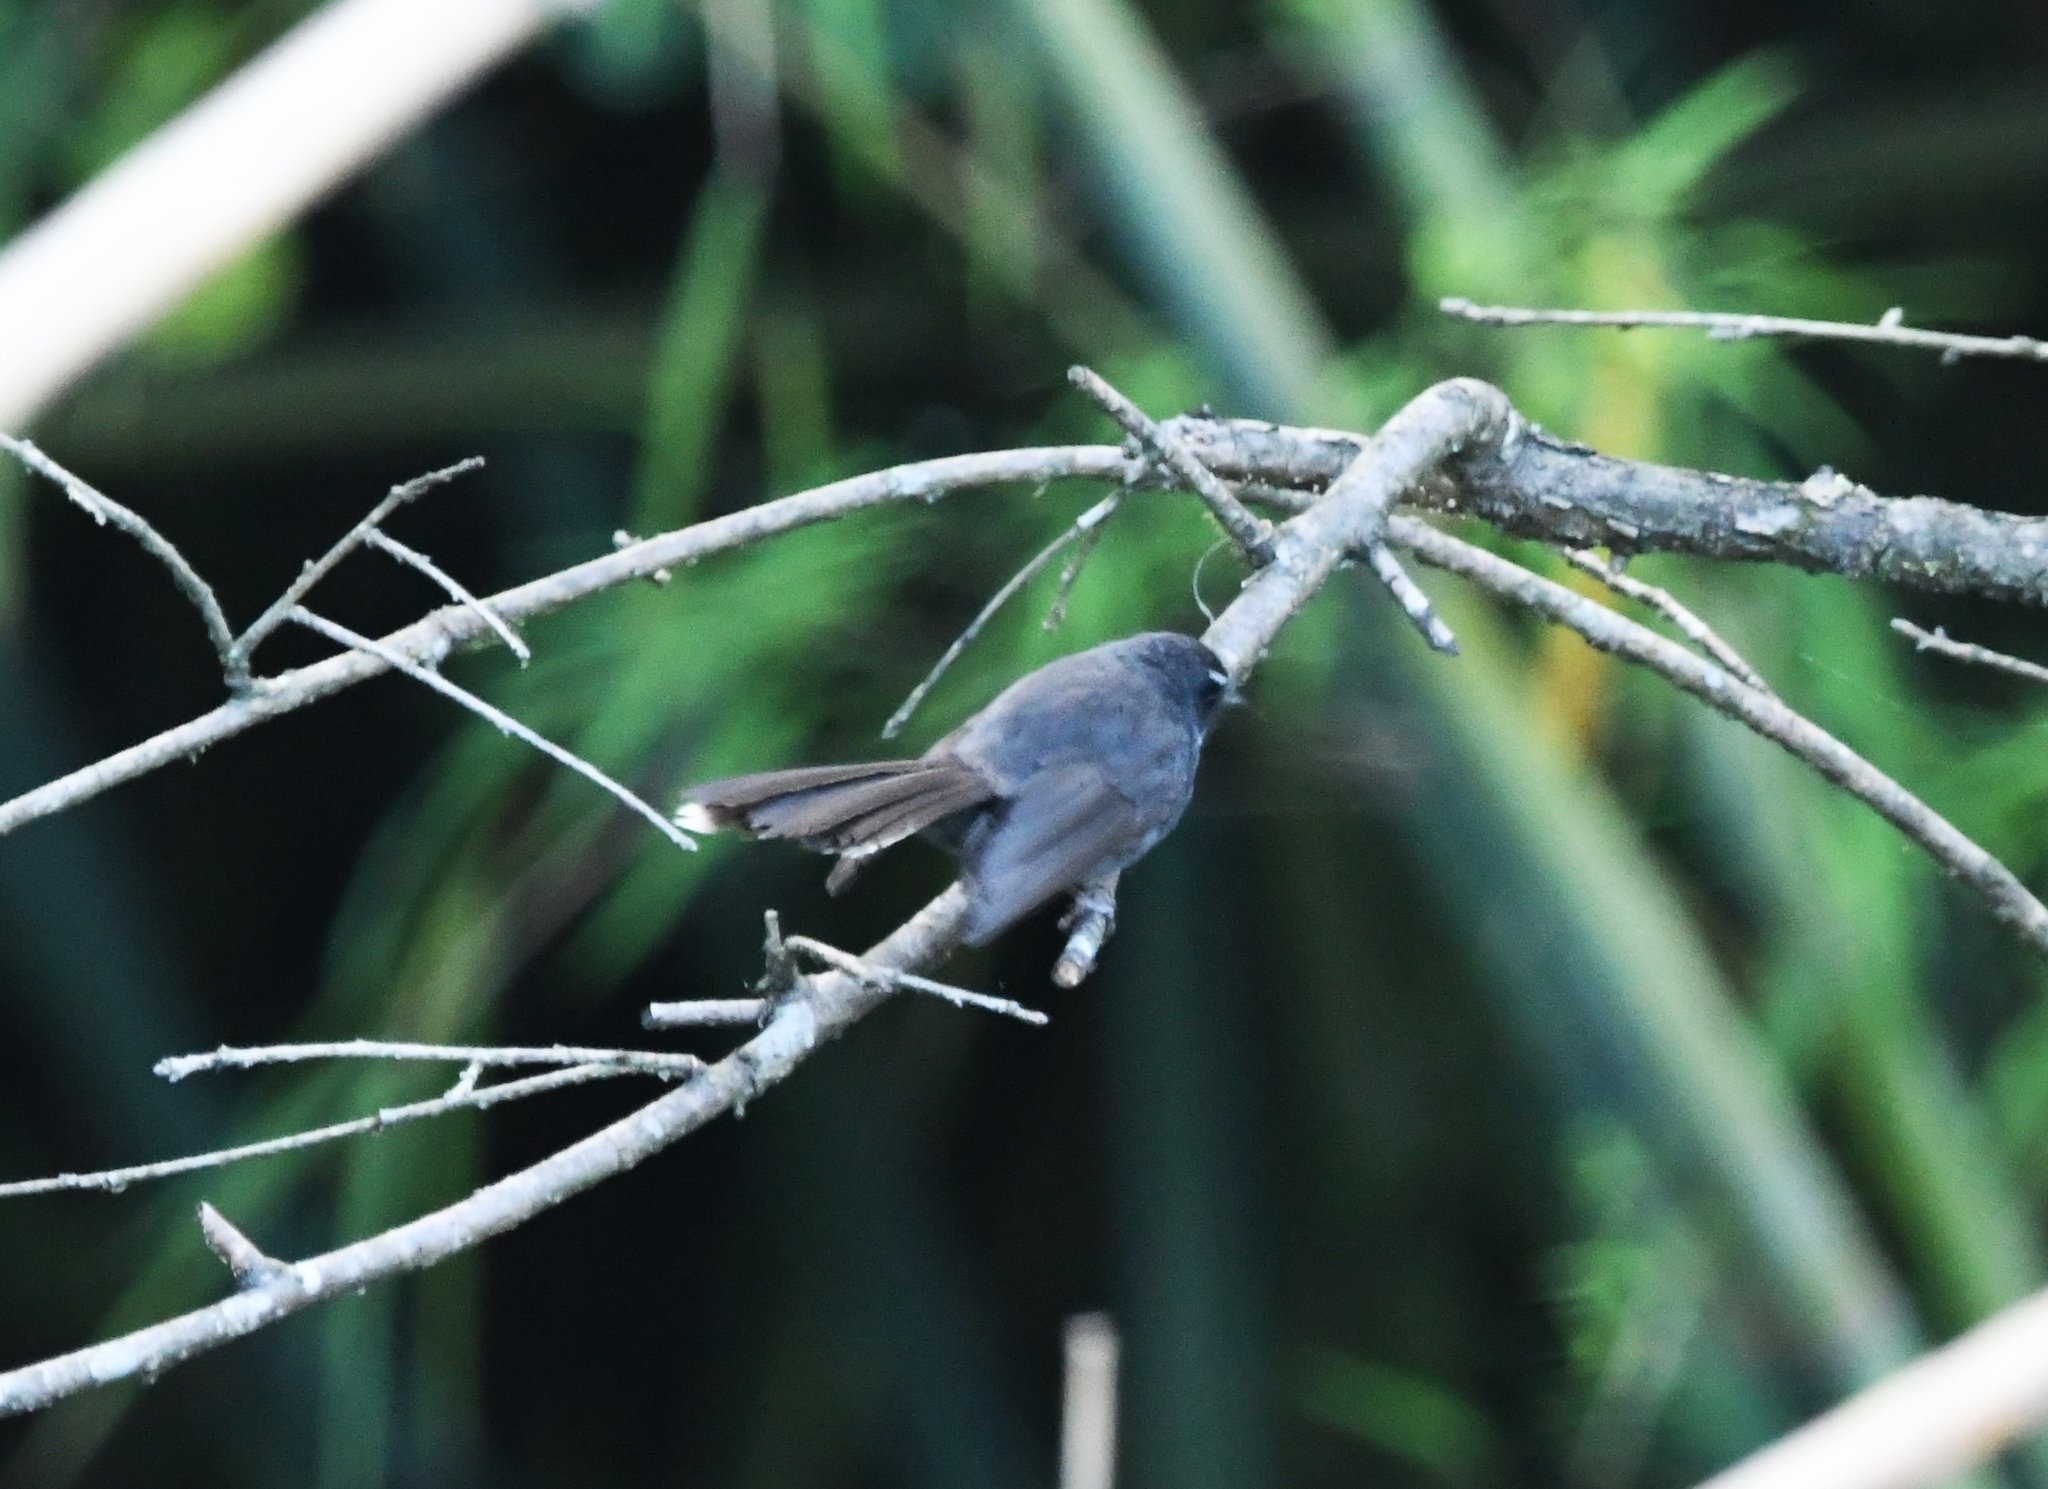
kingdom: Animalia
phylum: Chordata
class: Aves
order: Passeriformes
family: Rhipiduridae
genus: Rhipidura
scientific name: Rhipidura albicollis
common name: White-throated fantail
